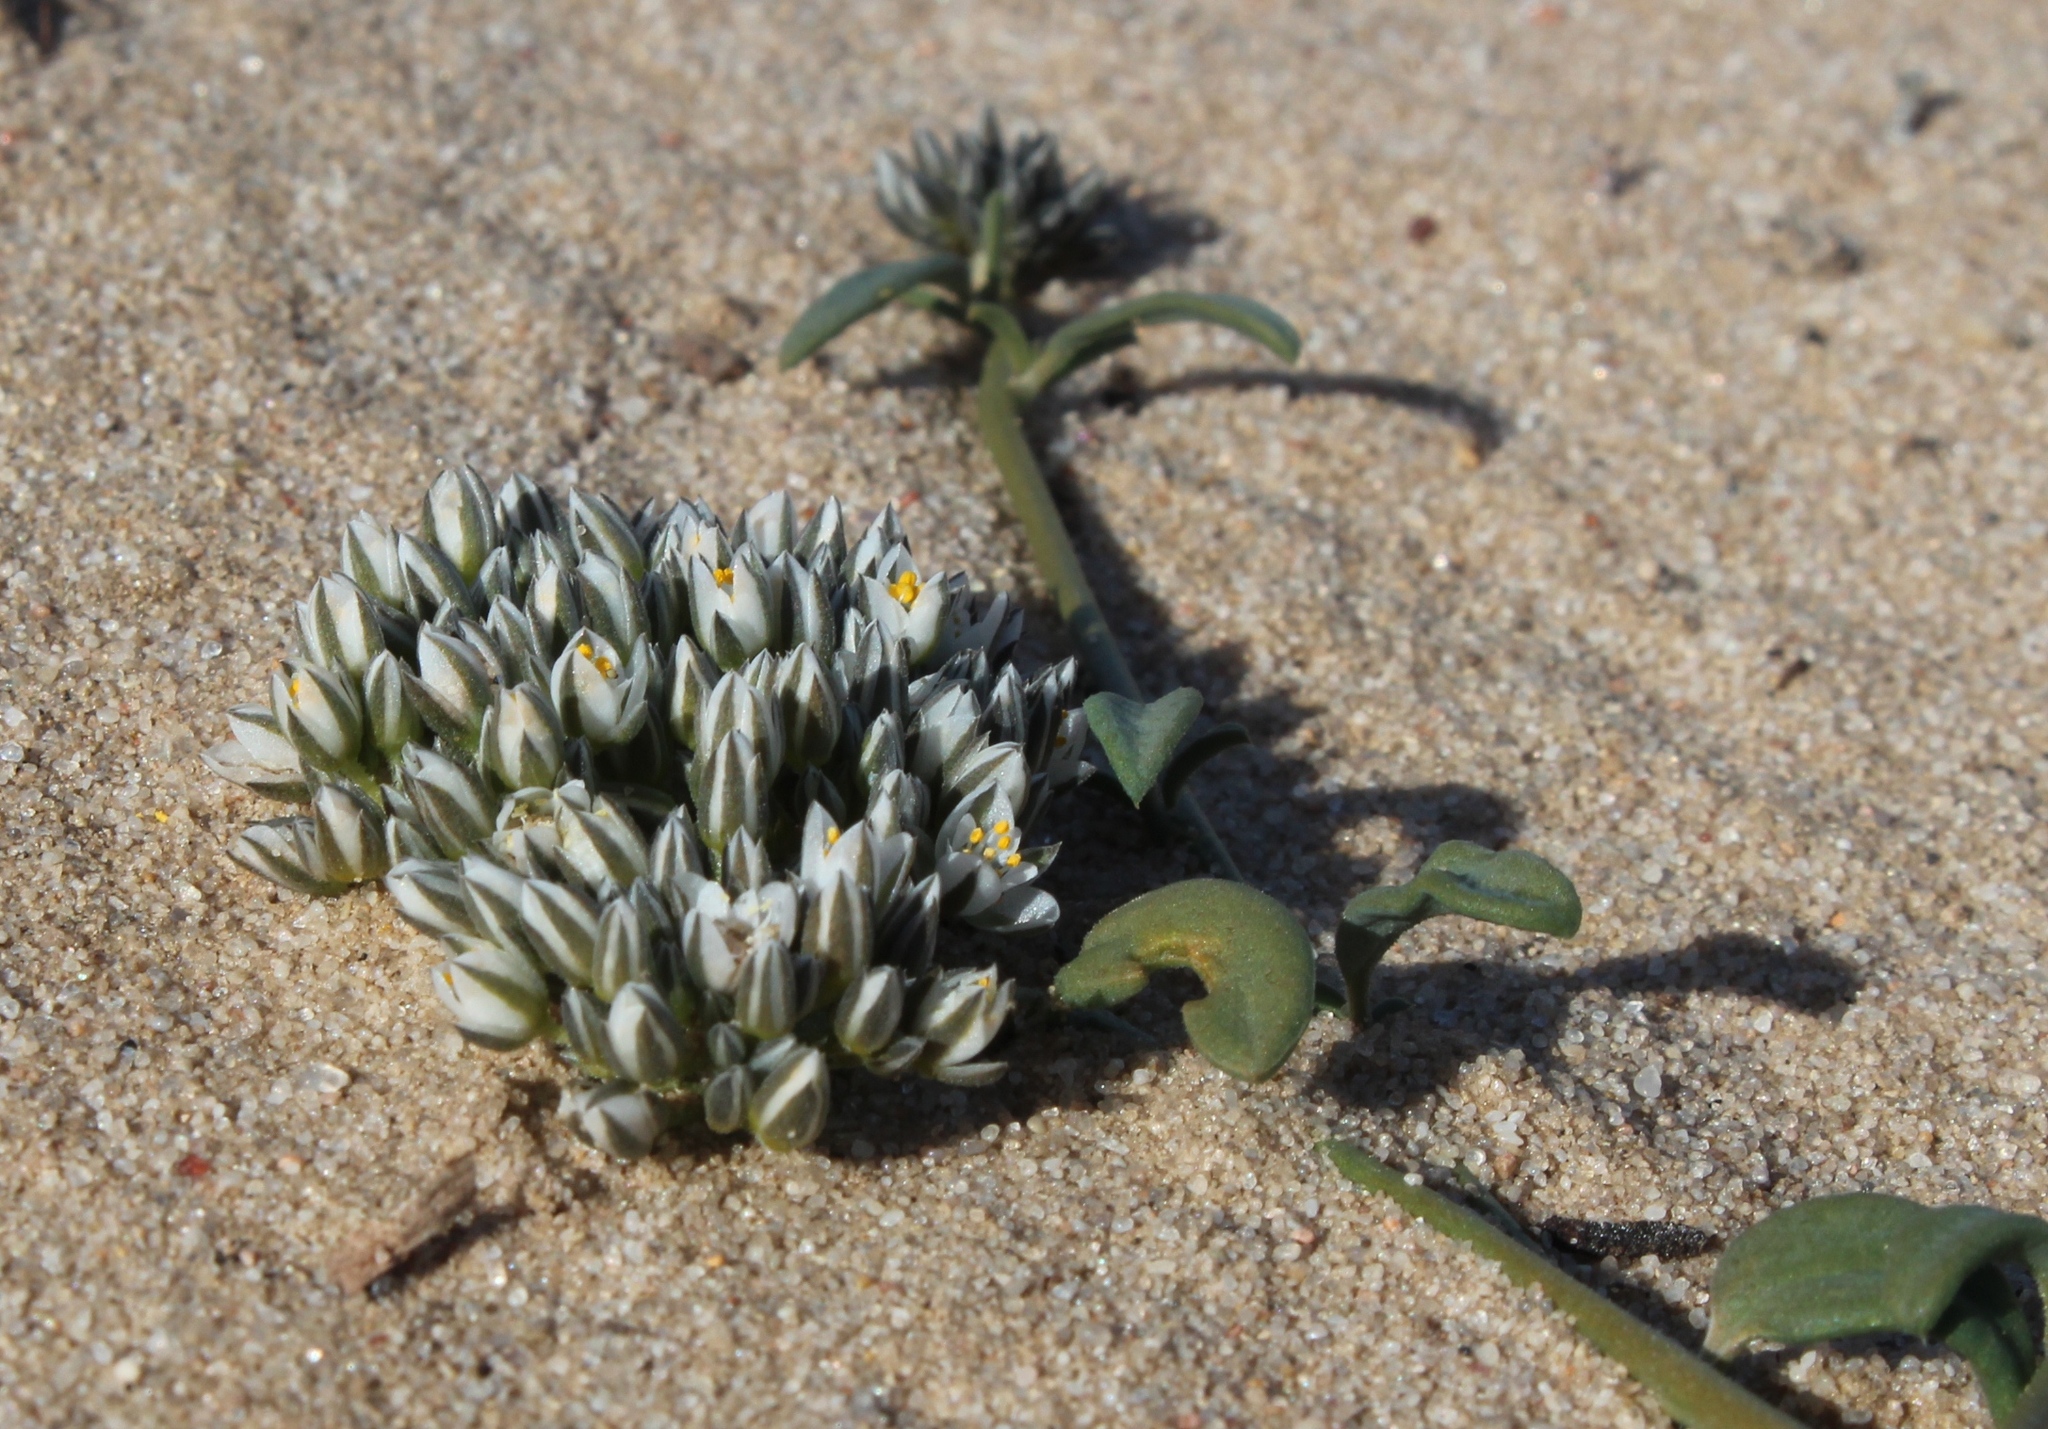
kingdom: Plantae
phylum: Tracheophyta
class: Magnoliopsida
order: Caryophyllales
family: Limeaceae
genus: Limeum
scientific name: Limeum africanum
